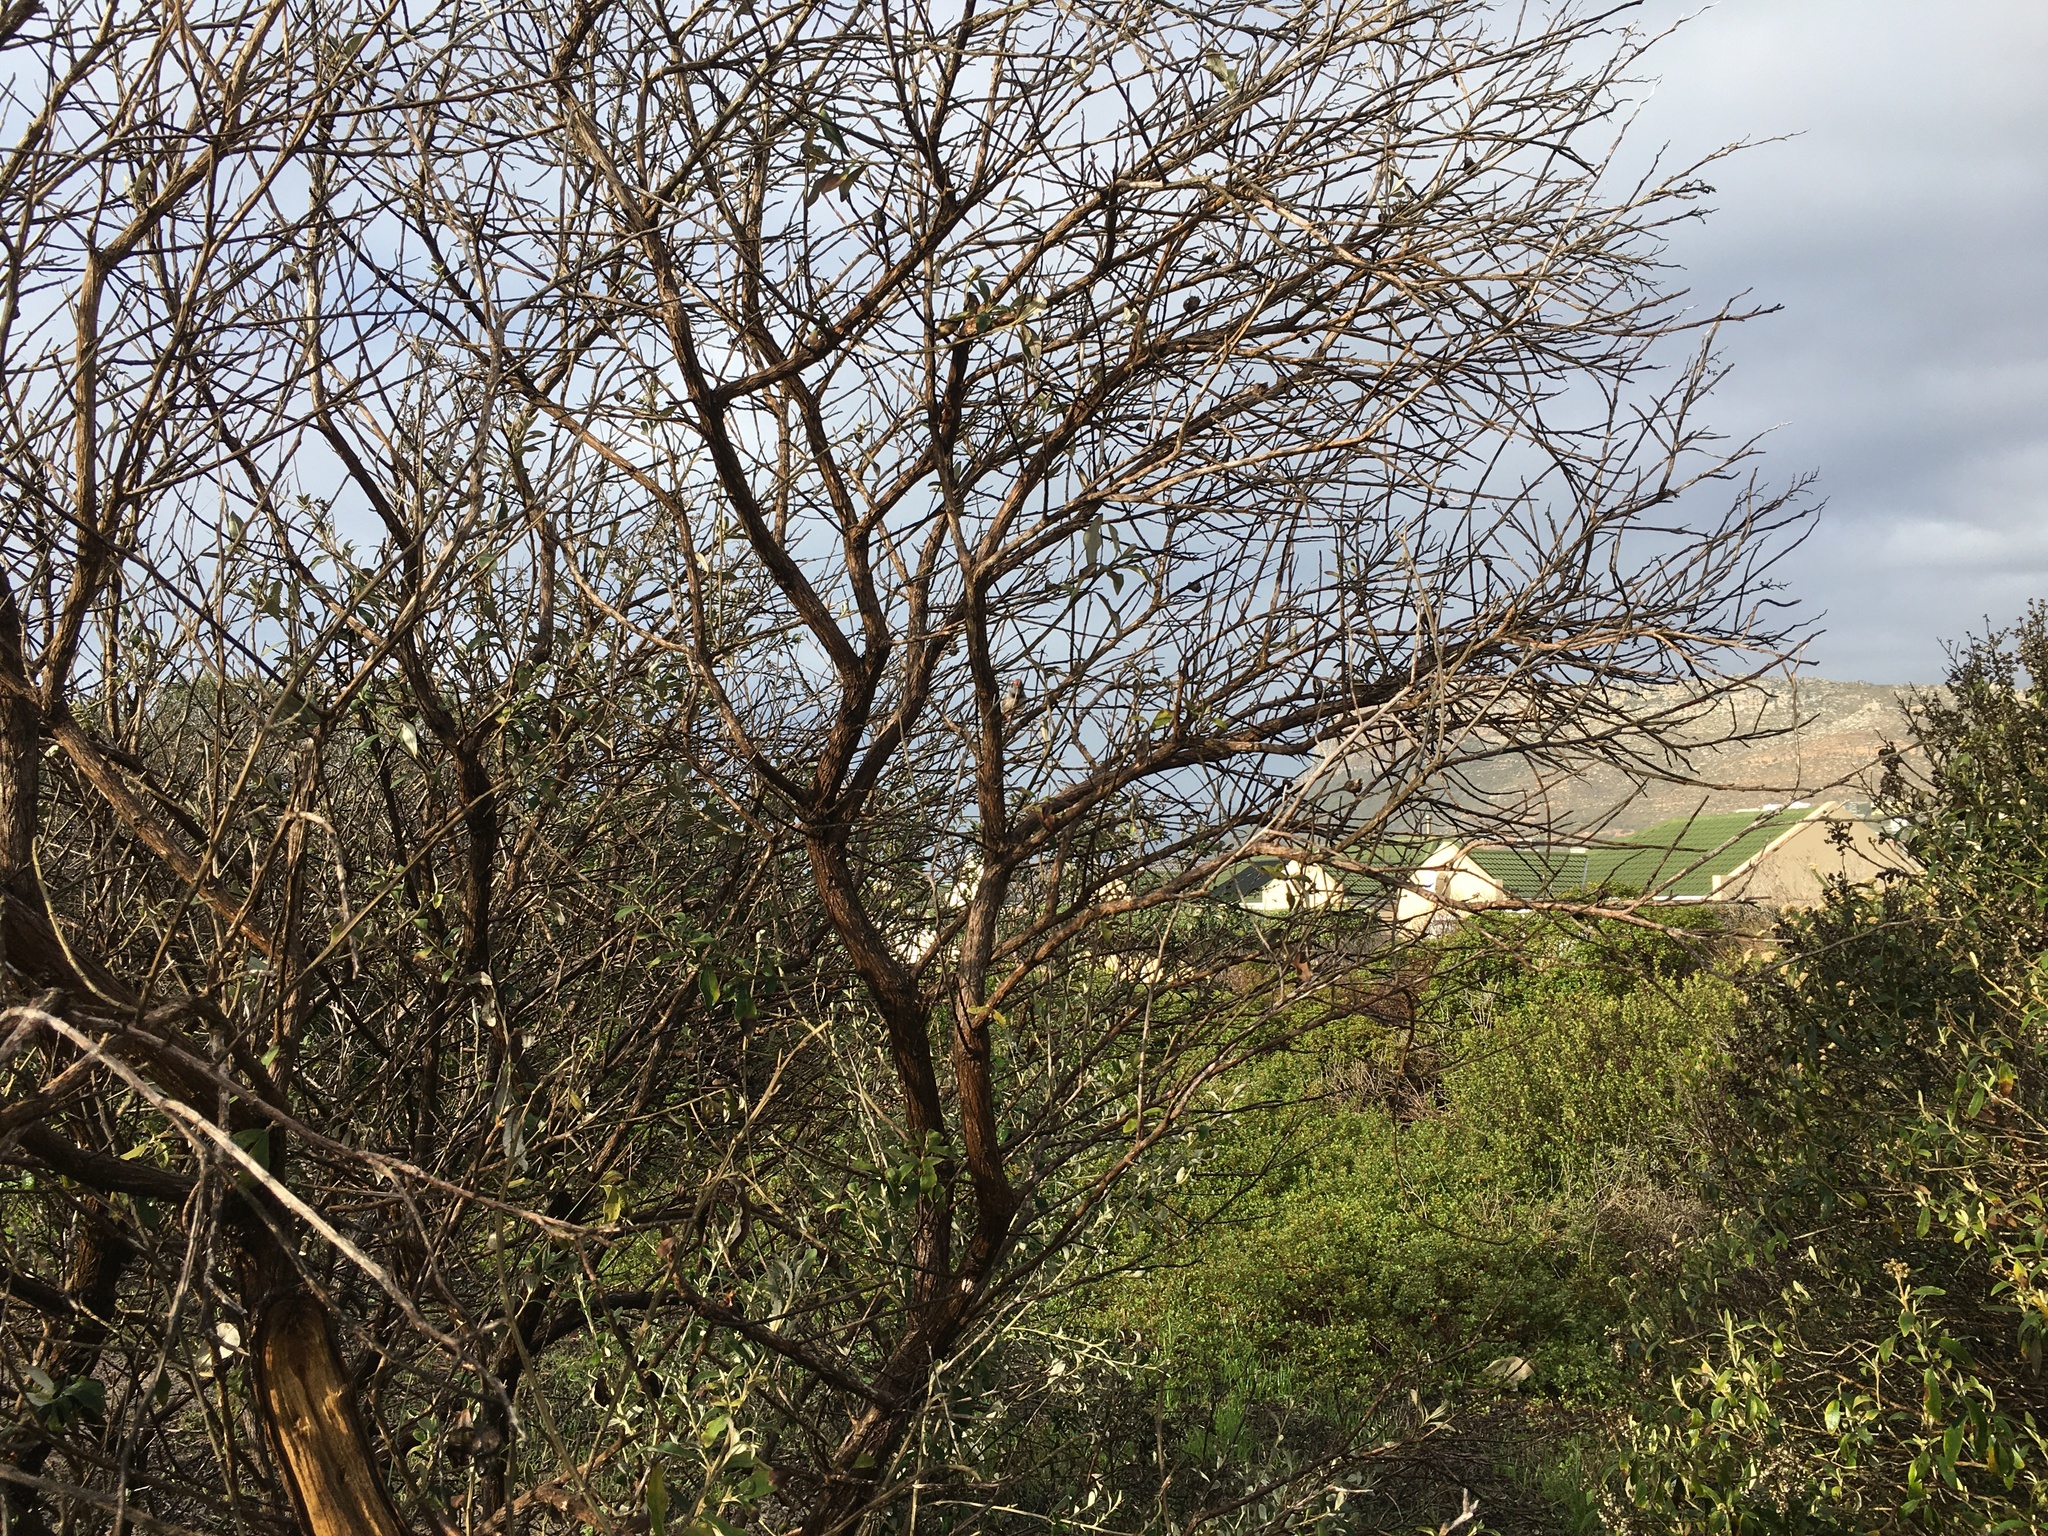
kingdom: Animalia
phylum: Chordata
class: Aves
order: Passeriformes
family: Estrildidae
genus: Taeniopygia
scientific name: Taeniopygia guttata
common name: Zebra finch
